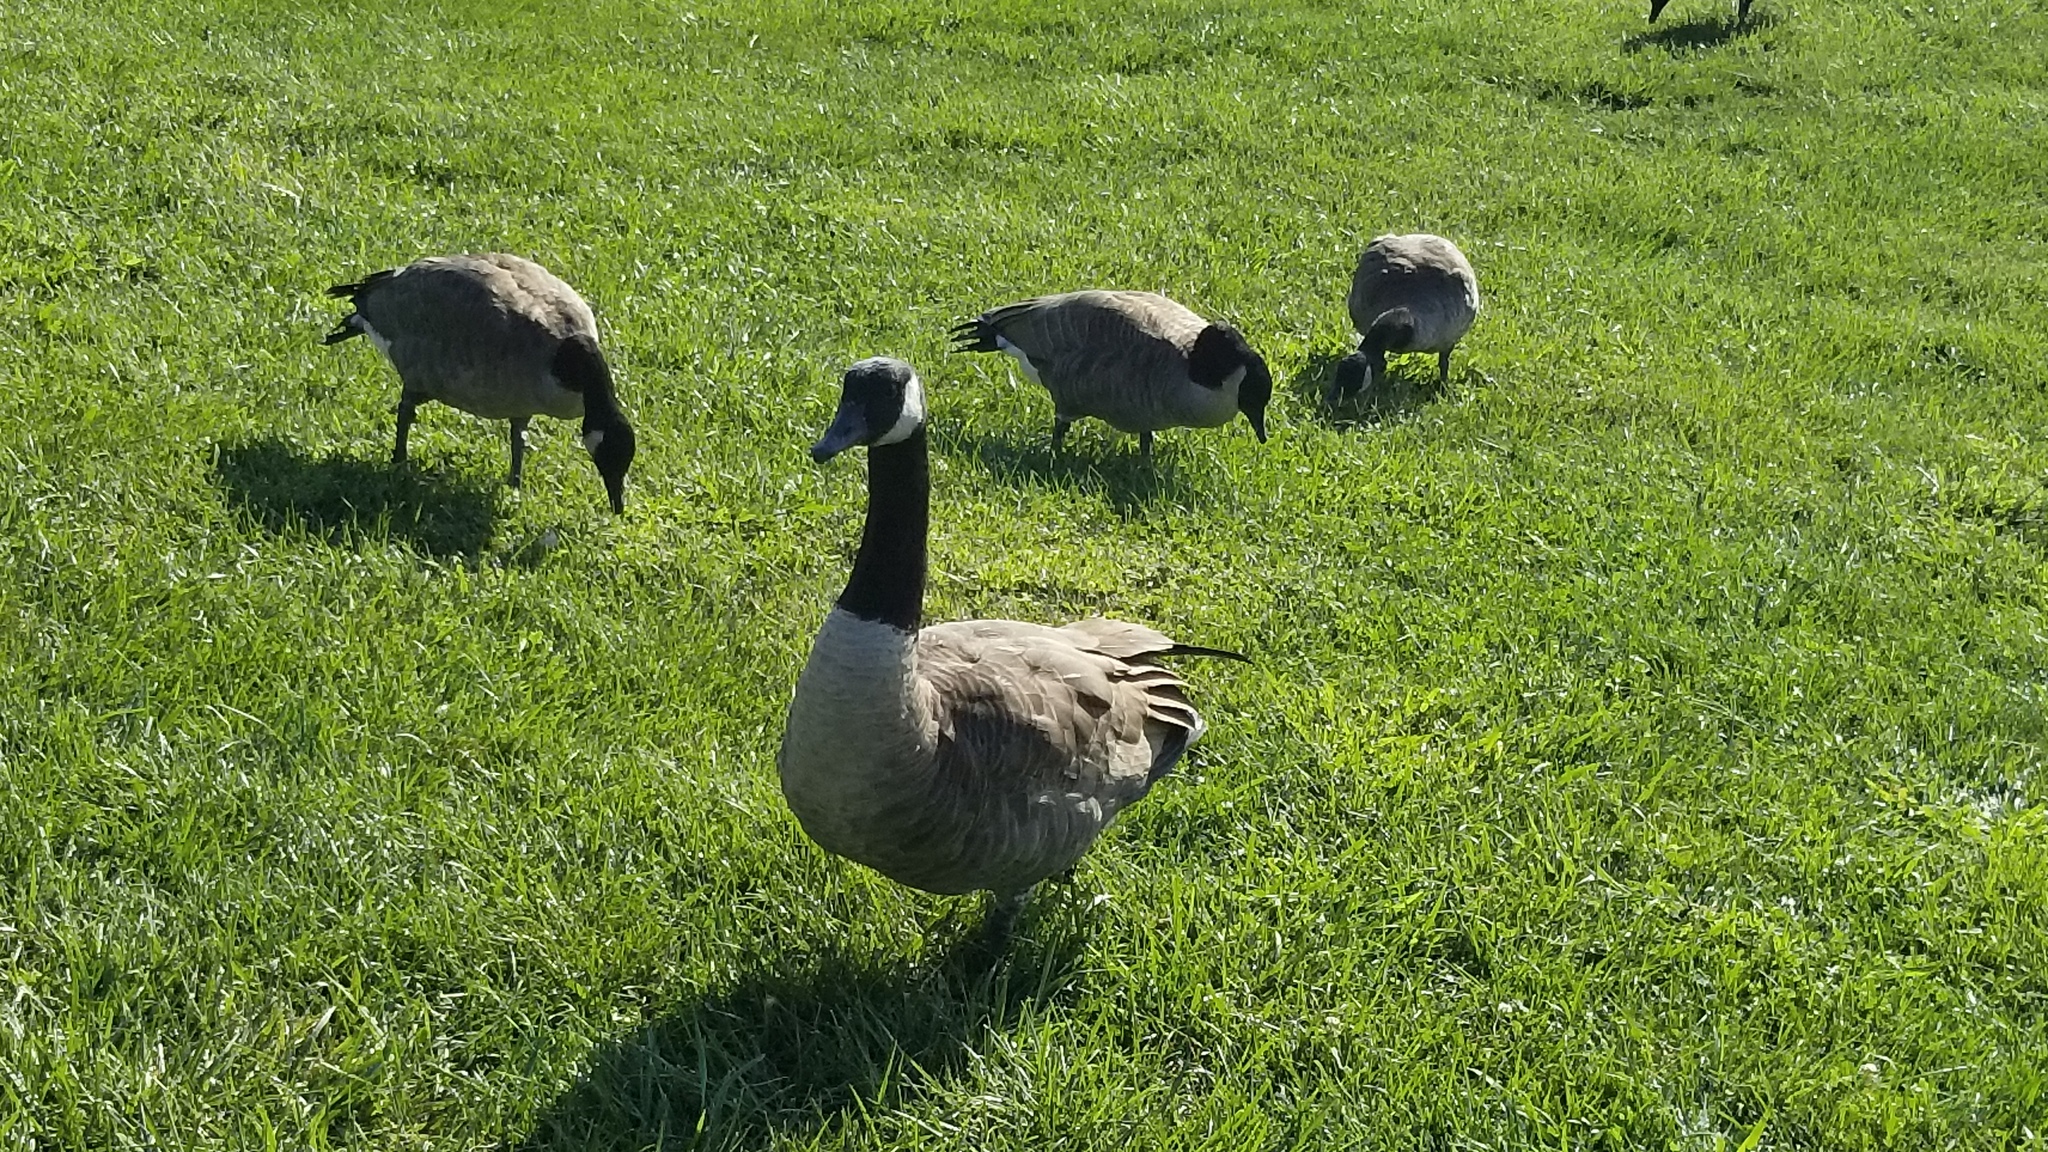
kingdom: Animalia
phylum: Chordata
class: Aves
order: Anseriformes
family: Anatidae
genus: Branta
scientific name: Branta canadensis
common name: Canada goose
